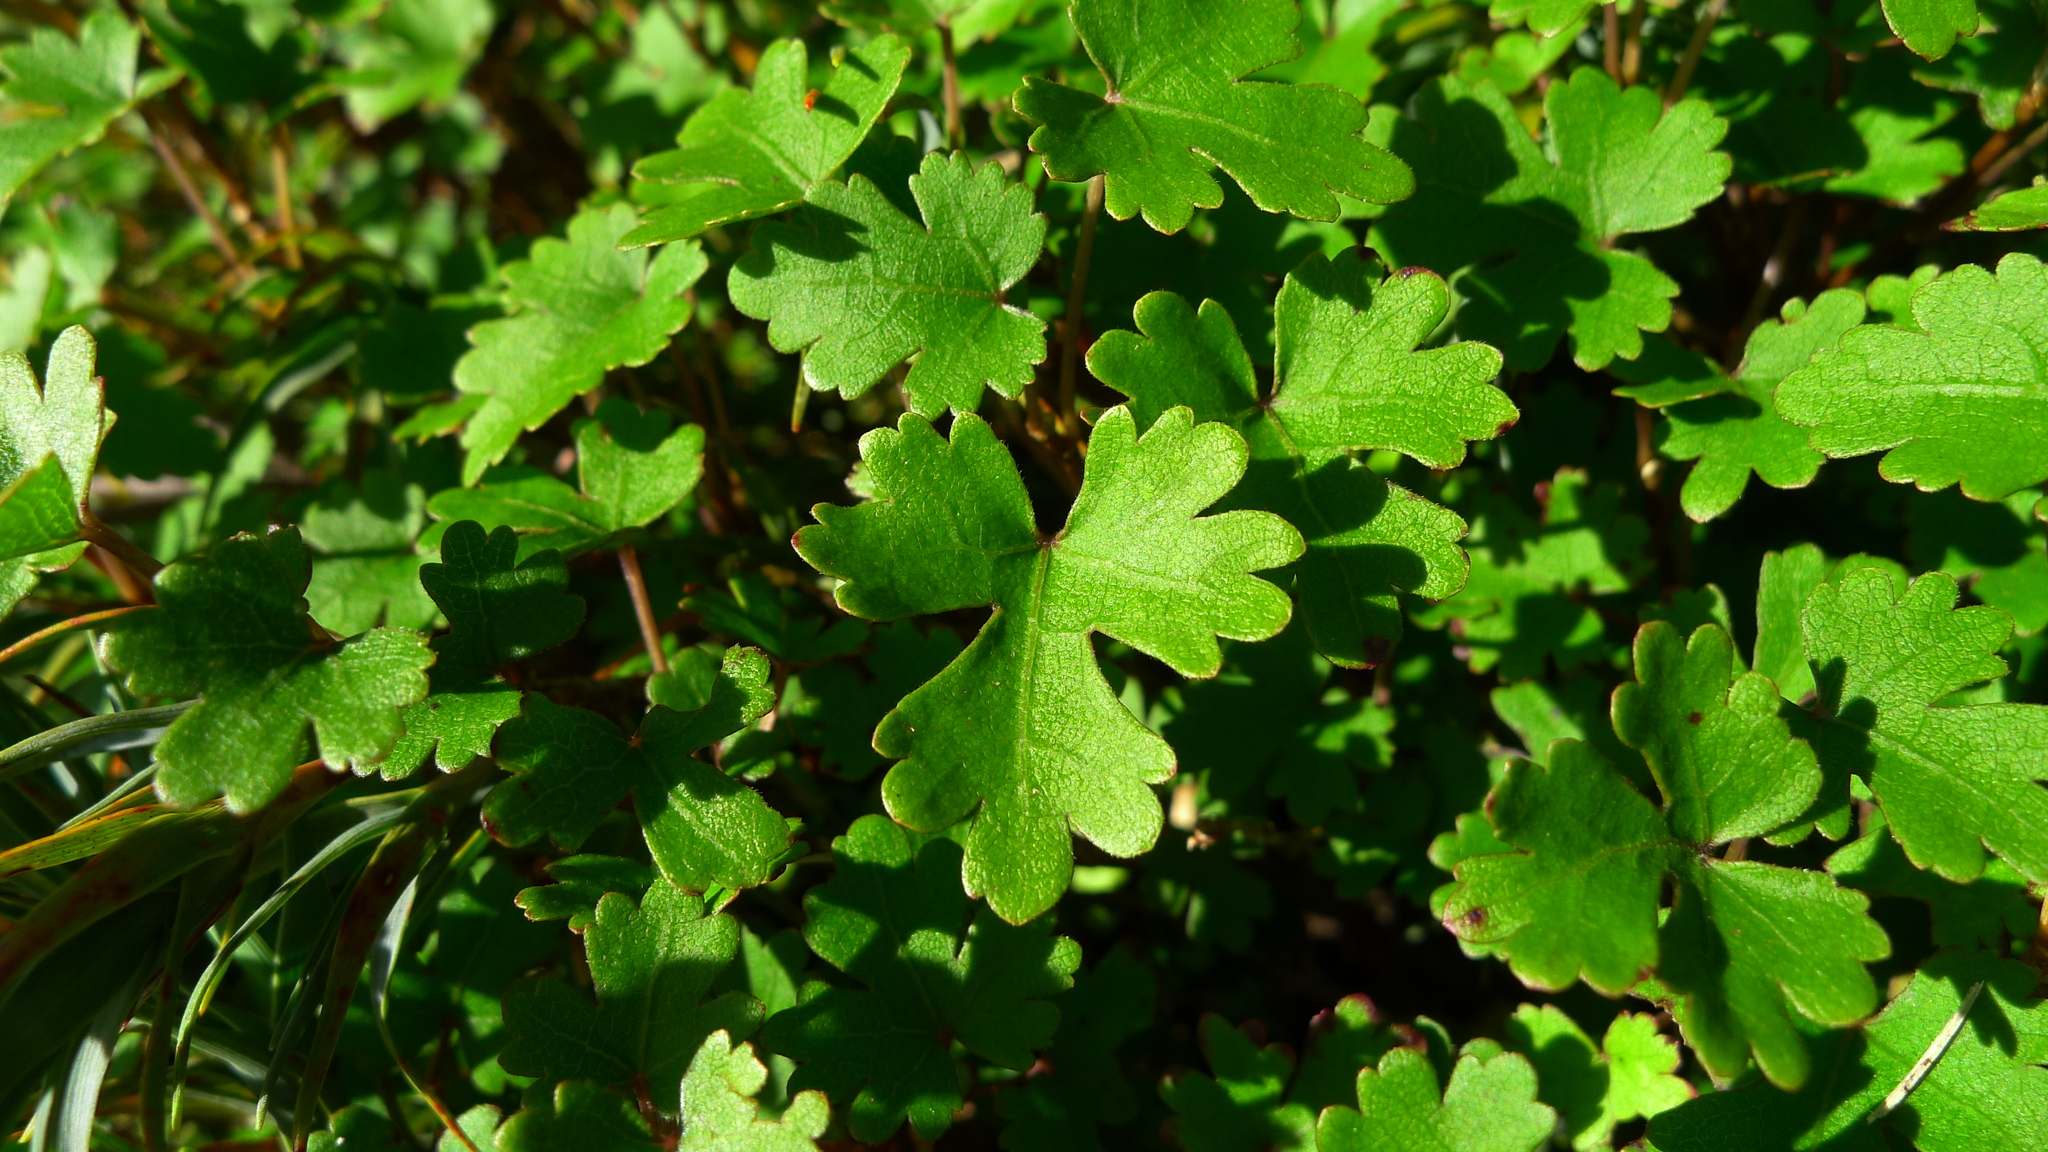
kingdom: Plantae
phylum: Tracheophyta
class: Magnoliopsida
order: Malvales
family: Malvaceae
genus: Hoheria
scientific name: Hoheria glabrata
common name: Mountain-ribbon
